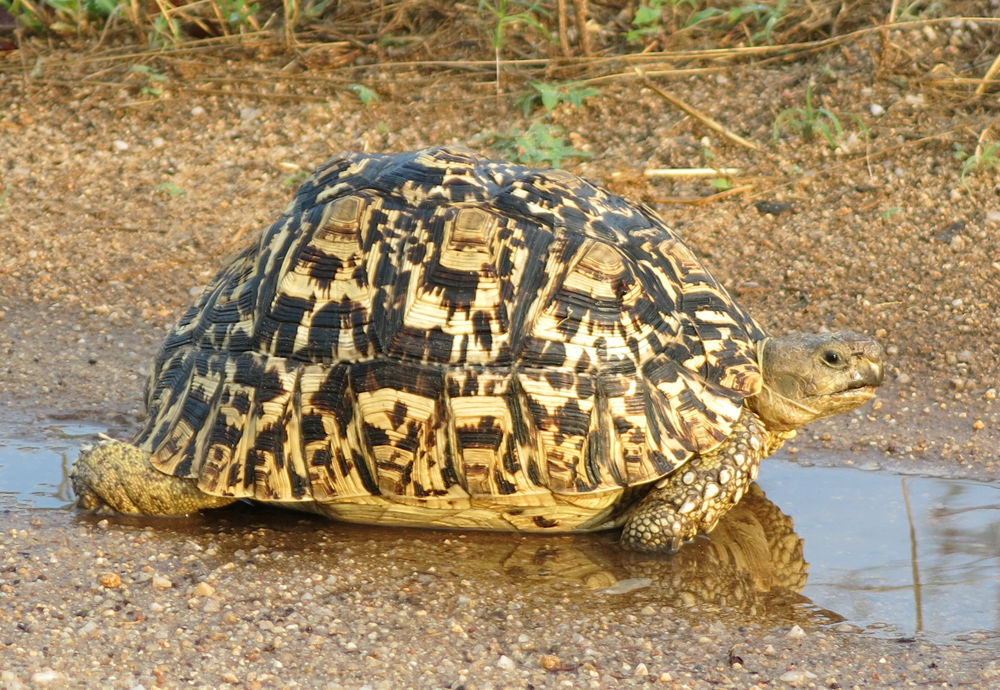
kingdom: Animalia
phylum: Chordata
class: Testudines
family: Testudinidae
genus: Stigmochelys
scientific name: Stigmochelys pardalis
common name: Leopard tortoise
